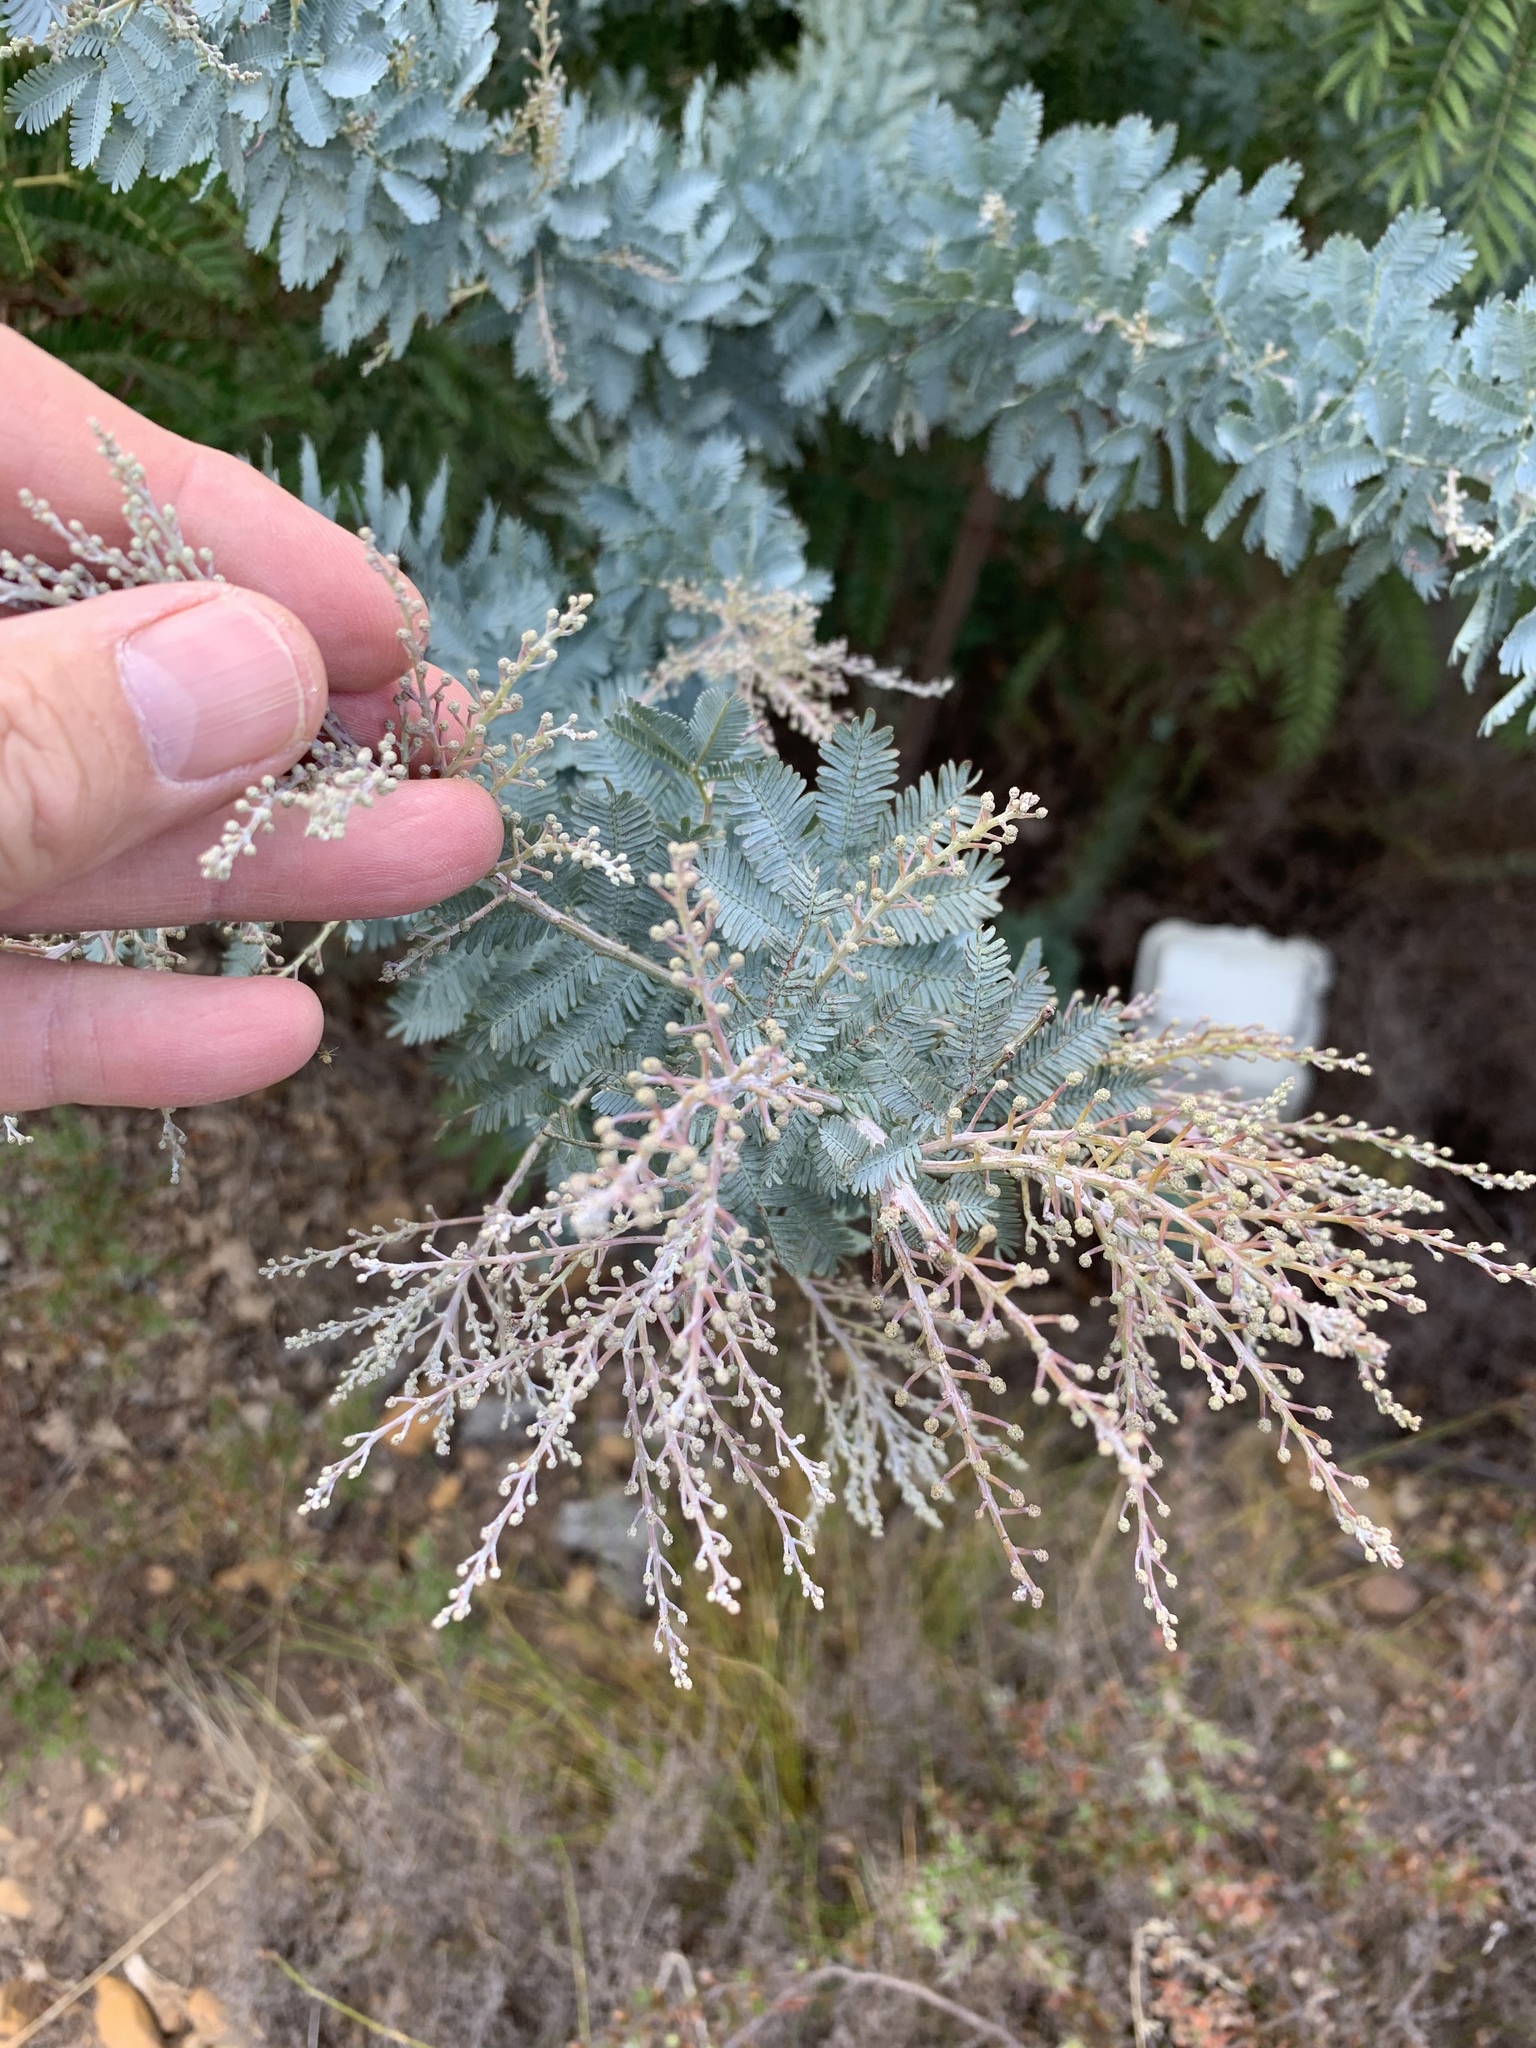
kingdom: Plantae
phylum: Tracheophyta
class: Magnoliopsida
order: Fabales
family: Fabaceae
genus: Acacia
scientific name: Acacia baileyana
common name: Cootamundra wattle
